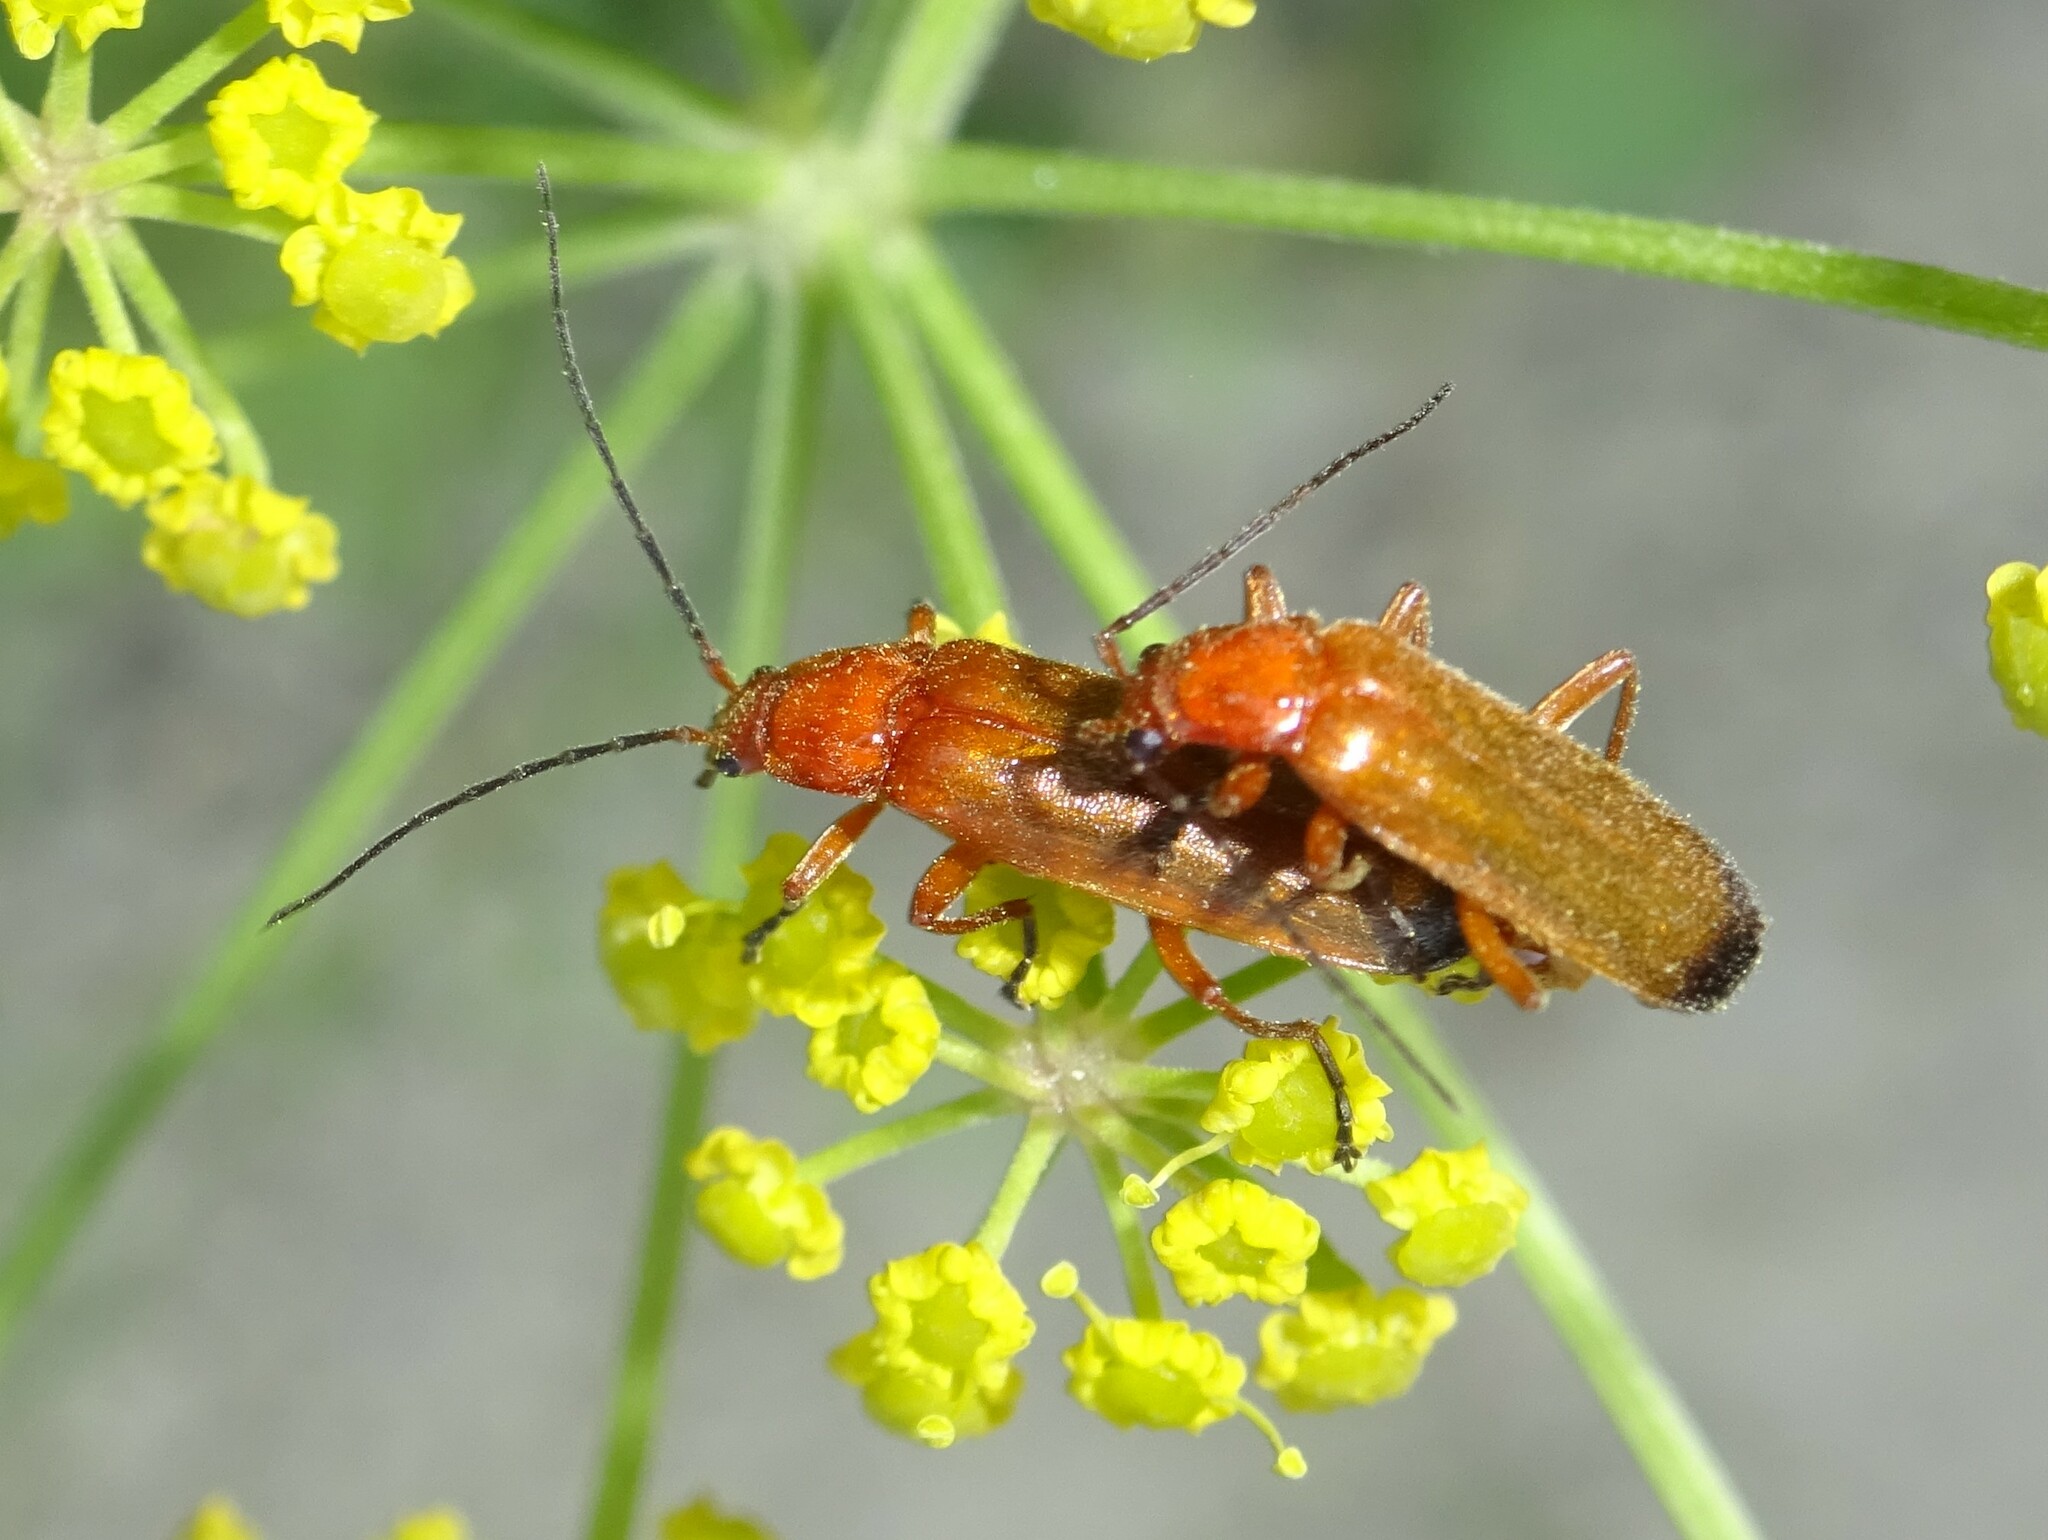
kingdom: Animalia
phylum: Arthropoda
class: Insecta
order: Coleoptera
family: Cantharidae
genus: Rhagonycha
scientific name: Rhagonycha fulva
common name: Common red soldier beetle
